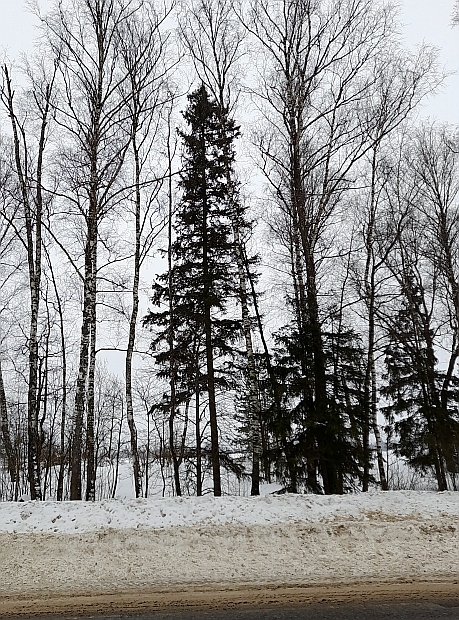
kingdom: Plantae
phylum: Tracheophyta
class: Pinopsida
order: Pinales
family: Pinaceae
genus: Picea
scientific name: Picea abies
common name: Norway spruce
